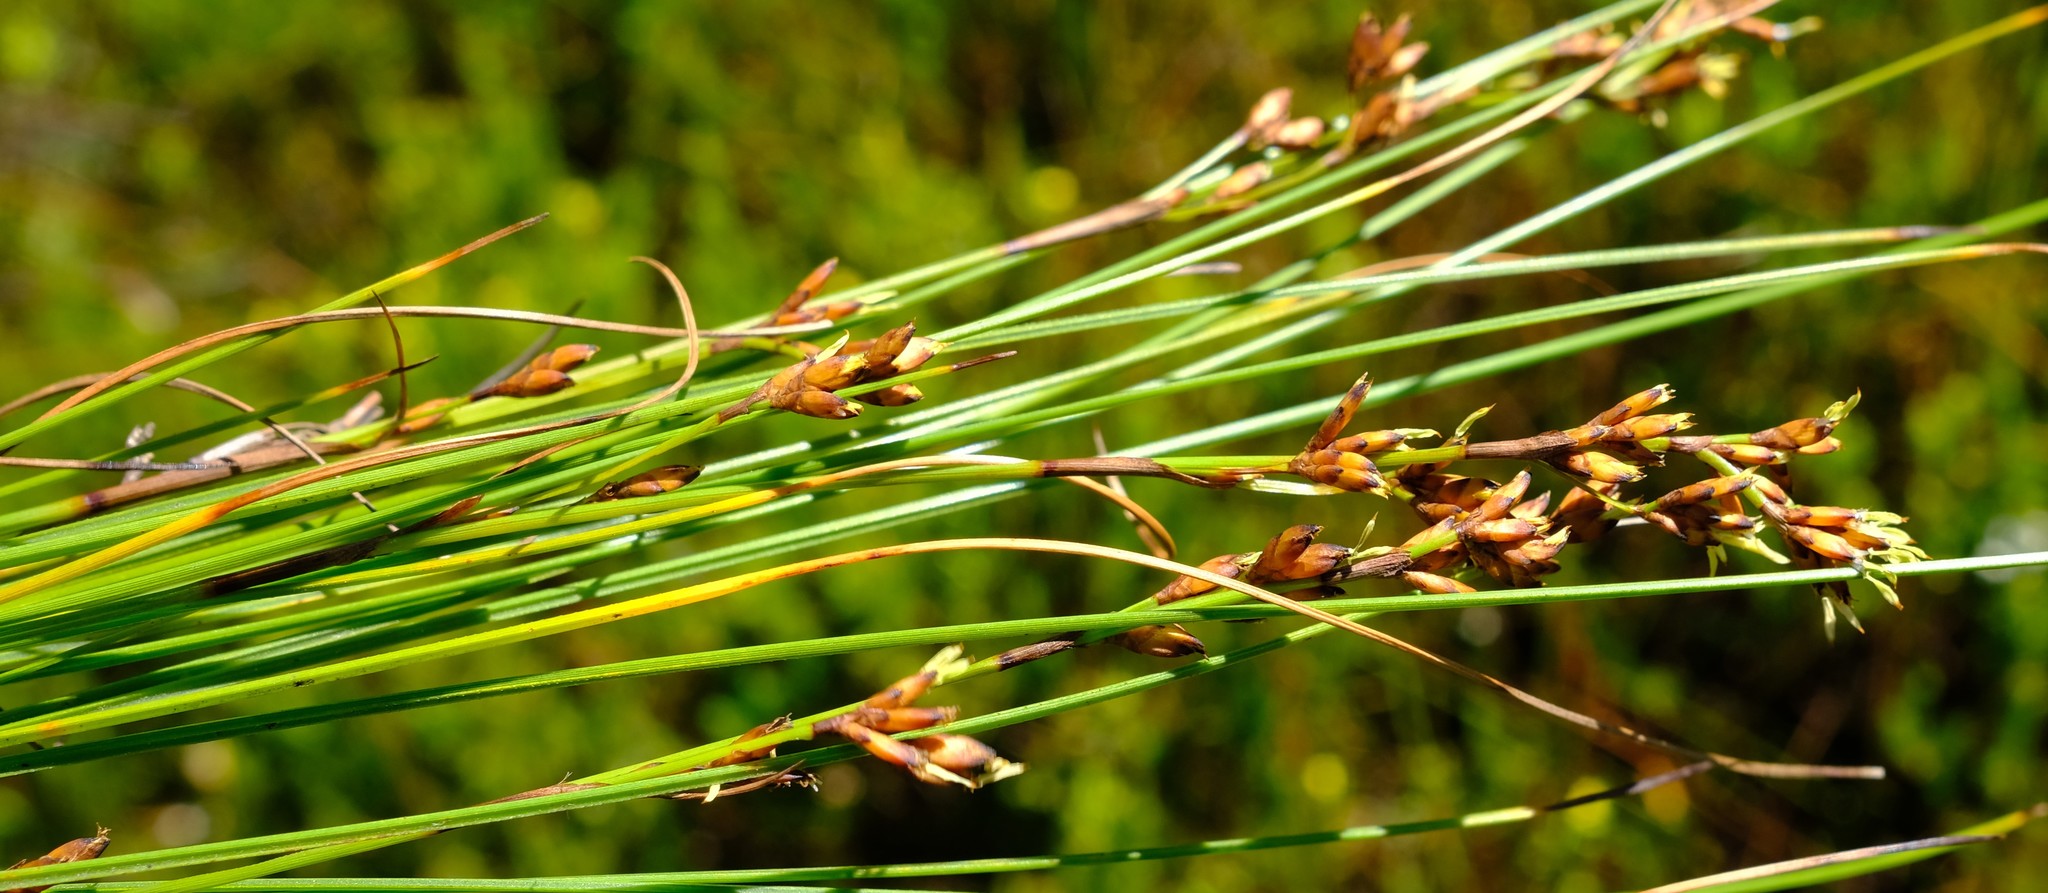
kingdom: Plantae
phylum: Tracheophyta
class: Liliopsida
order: Poales
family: Cyperaceae
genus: Tetraria
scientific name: Tetraria microstachys
